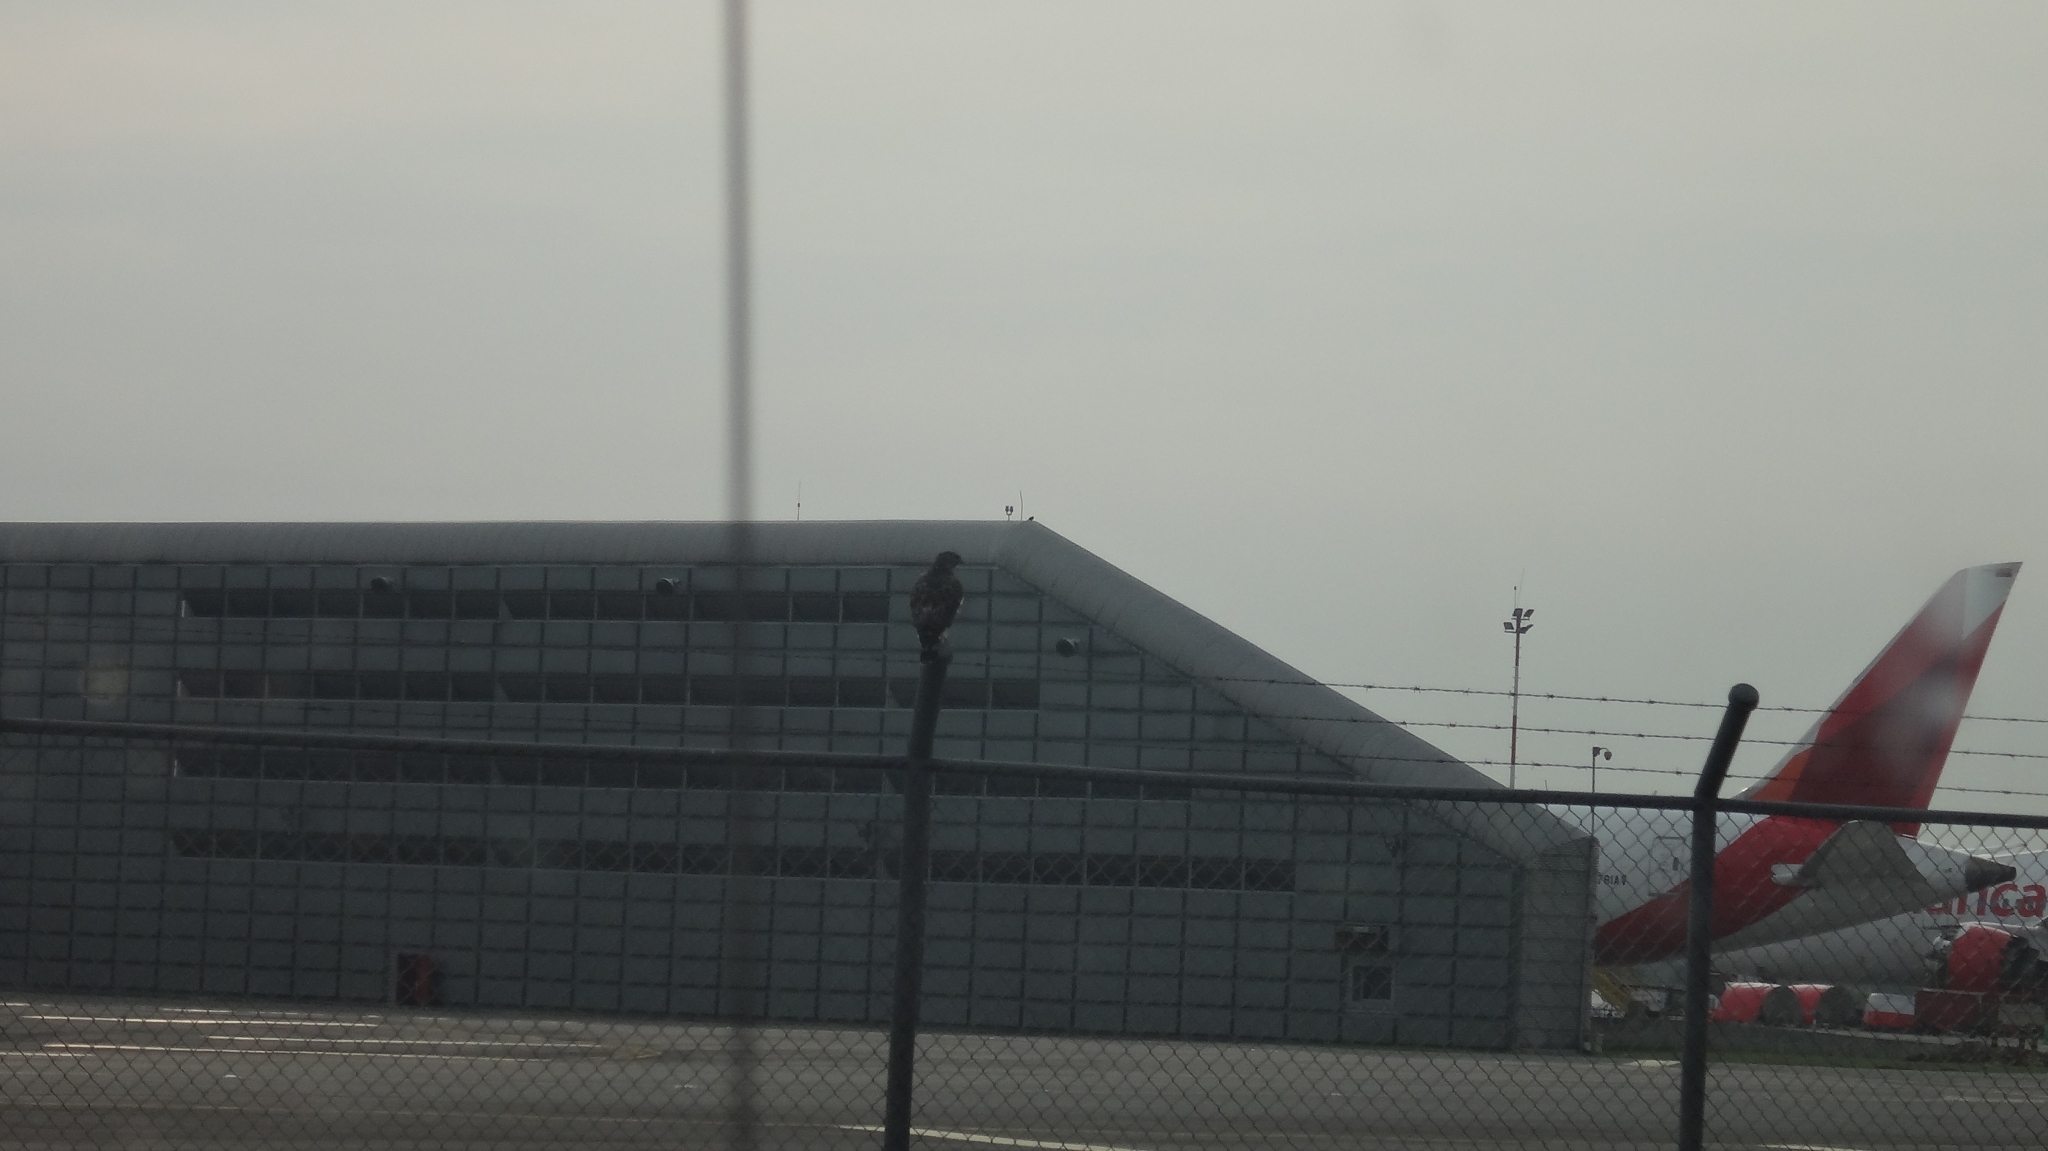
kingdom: Animalia
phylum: Chordata
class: Aves
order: Accipitriformes
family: Accipitridae
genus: Buteo
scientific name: Buteo platypterus
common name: Broad-winged hawk
